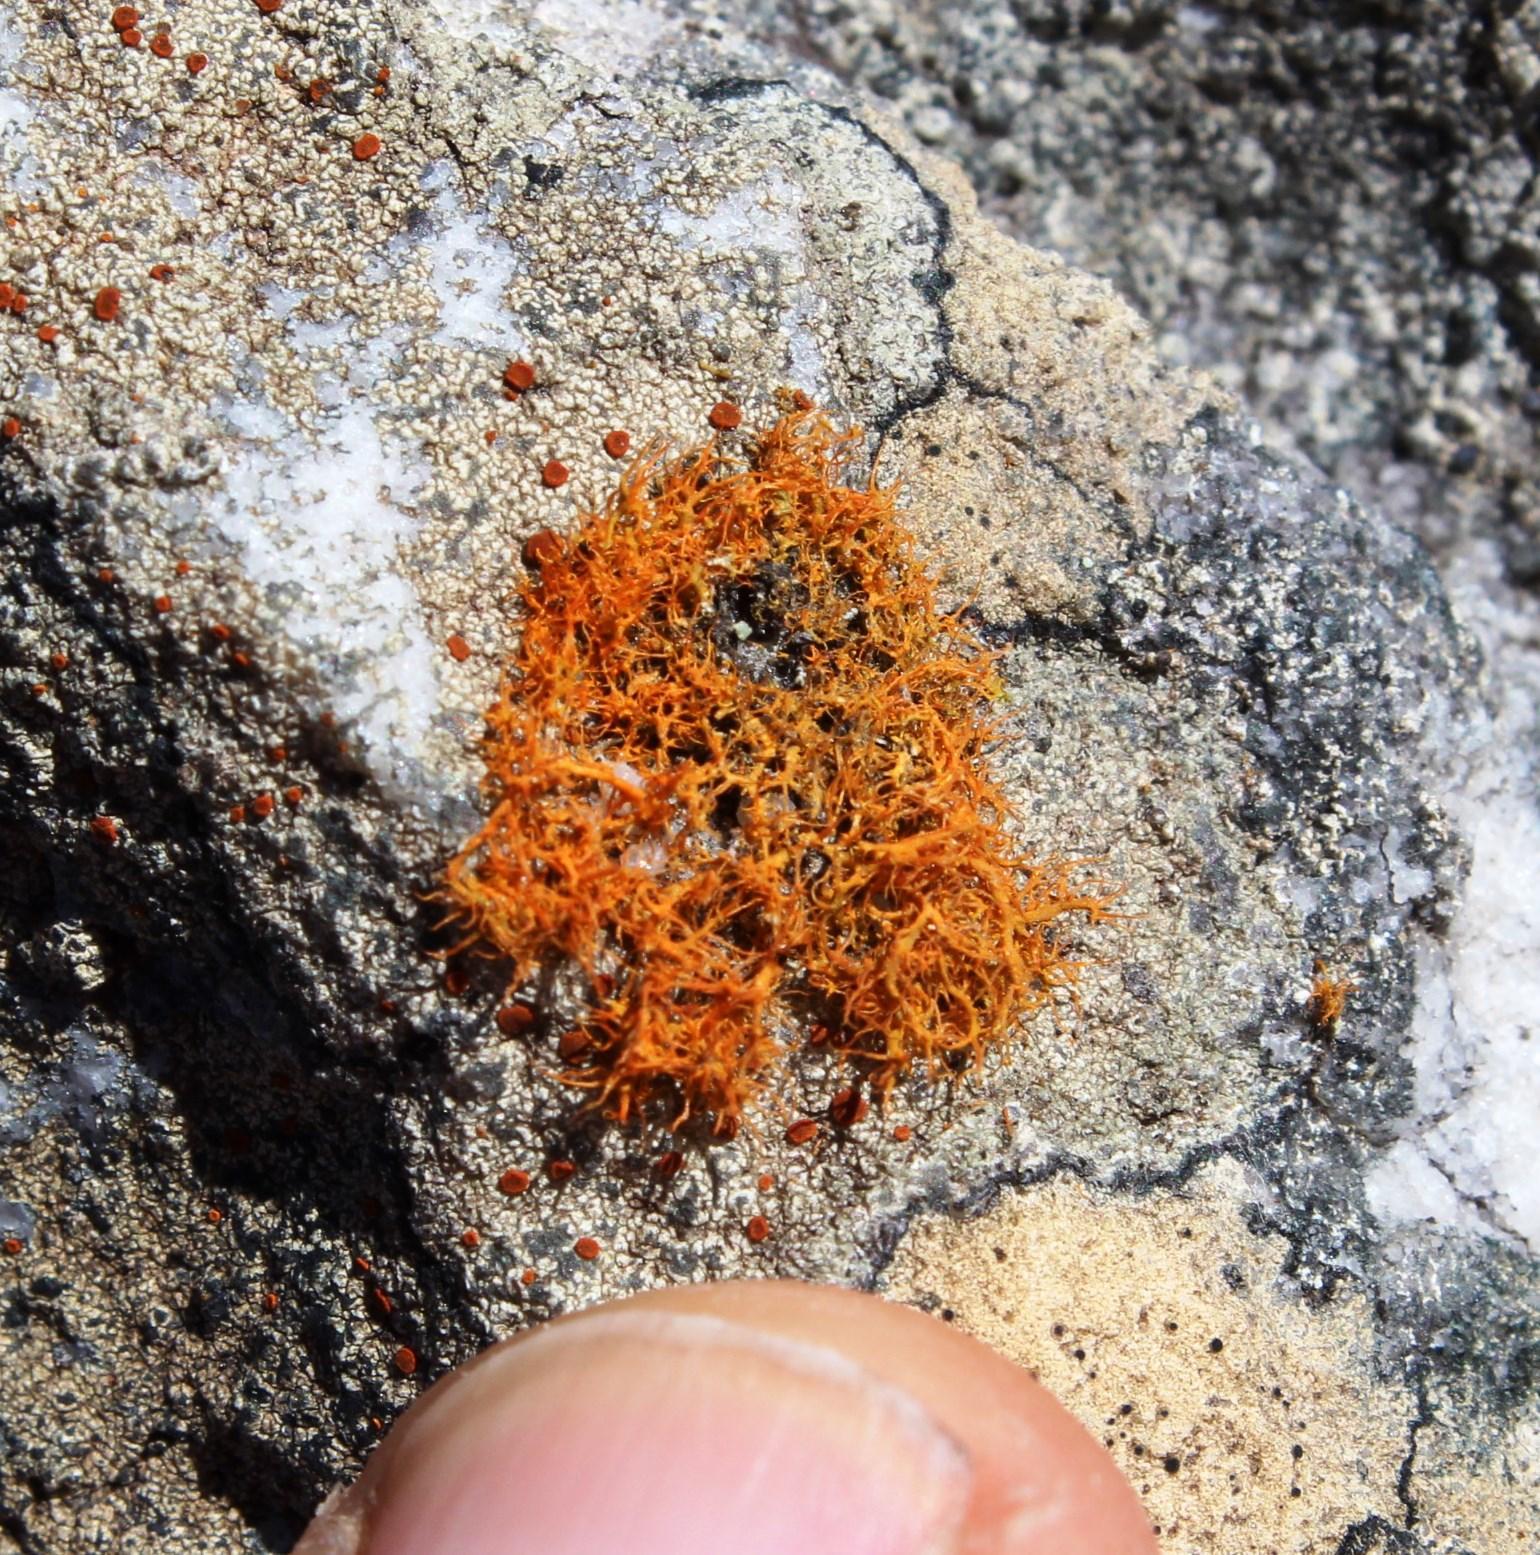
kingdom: Fungi
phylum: Ascomycota
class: Lecanoromycetes
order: Teloschistales
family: Teloschistaceae
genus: Teloschistes
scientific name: Teloschistes inflatus
